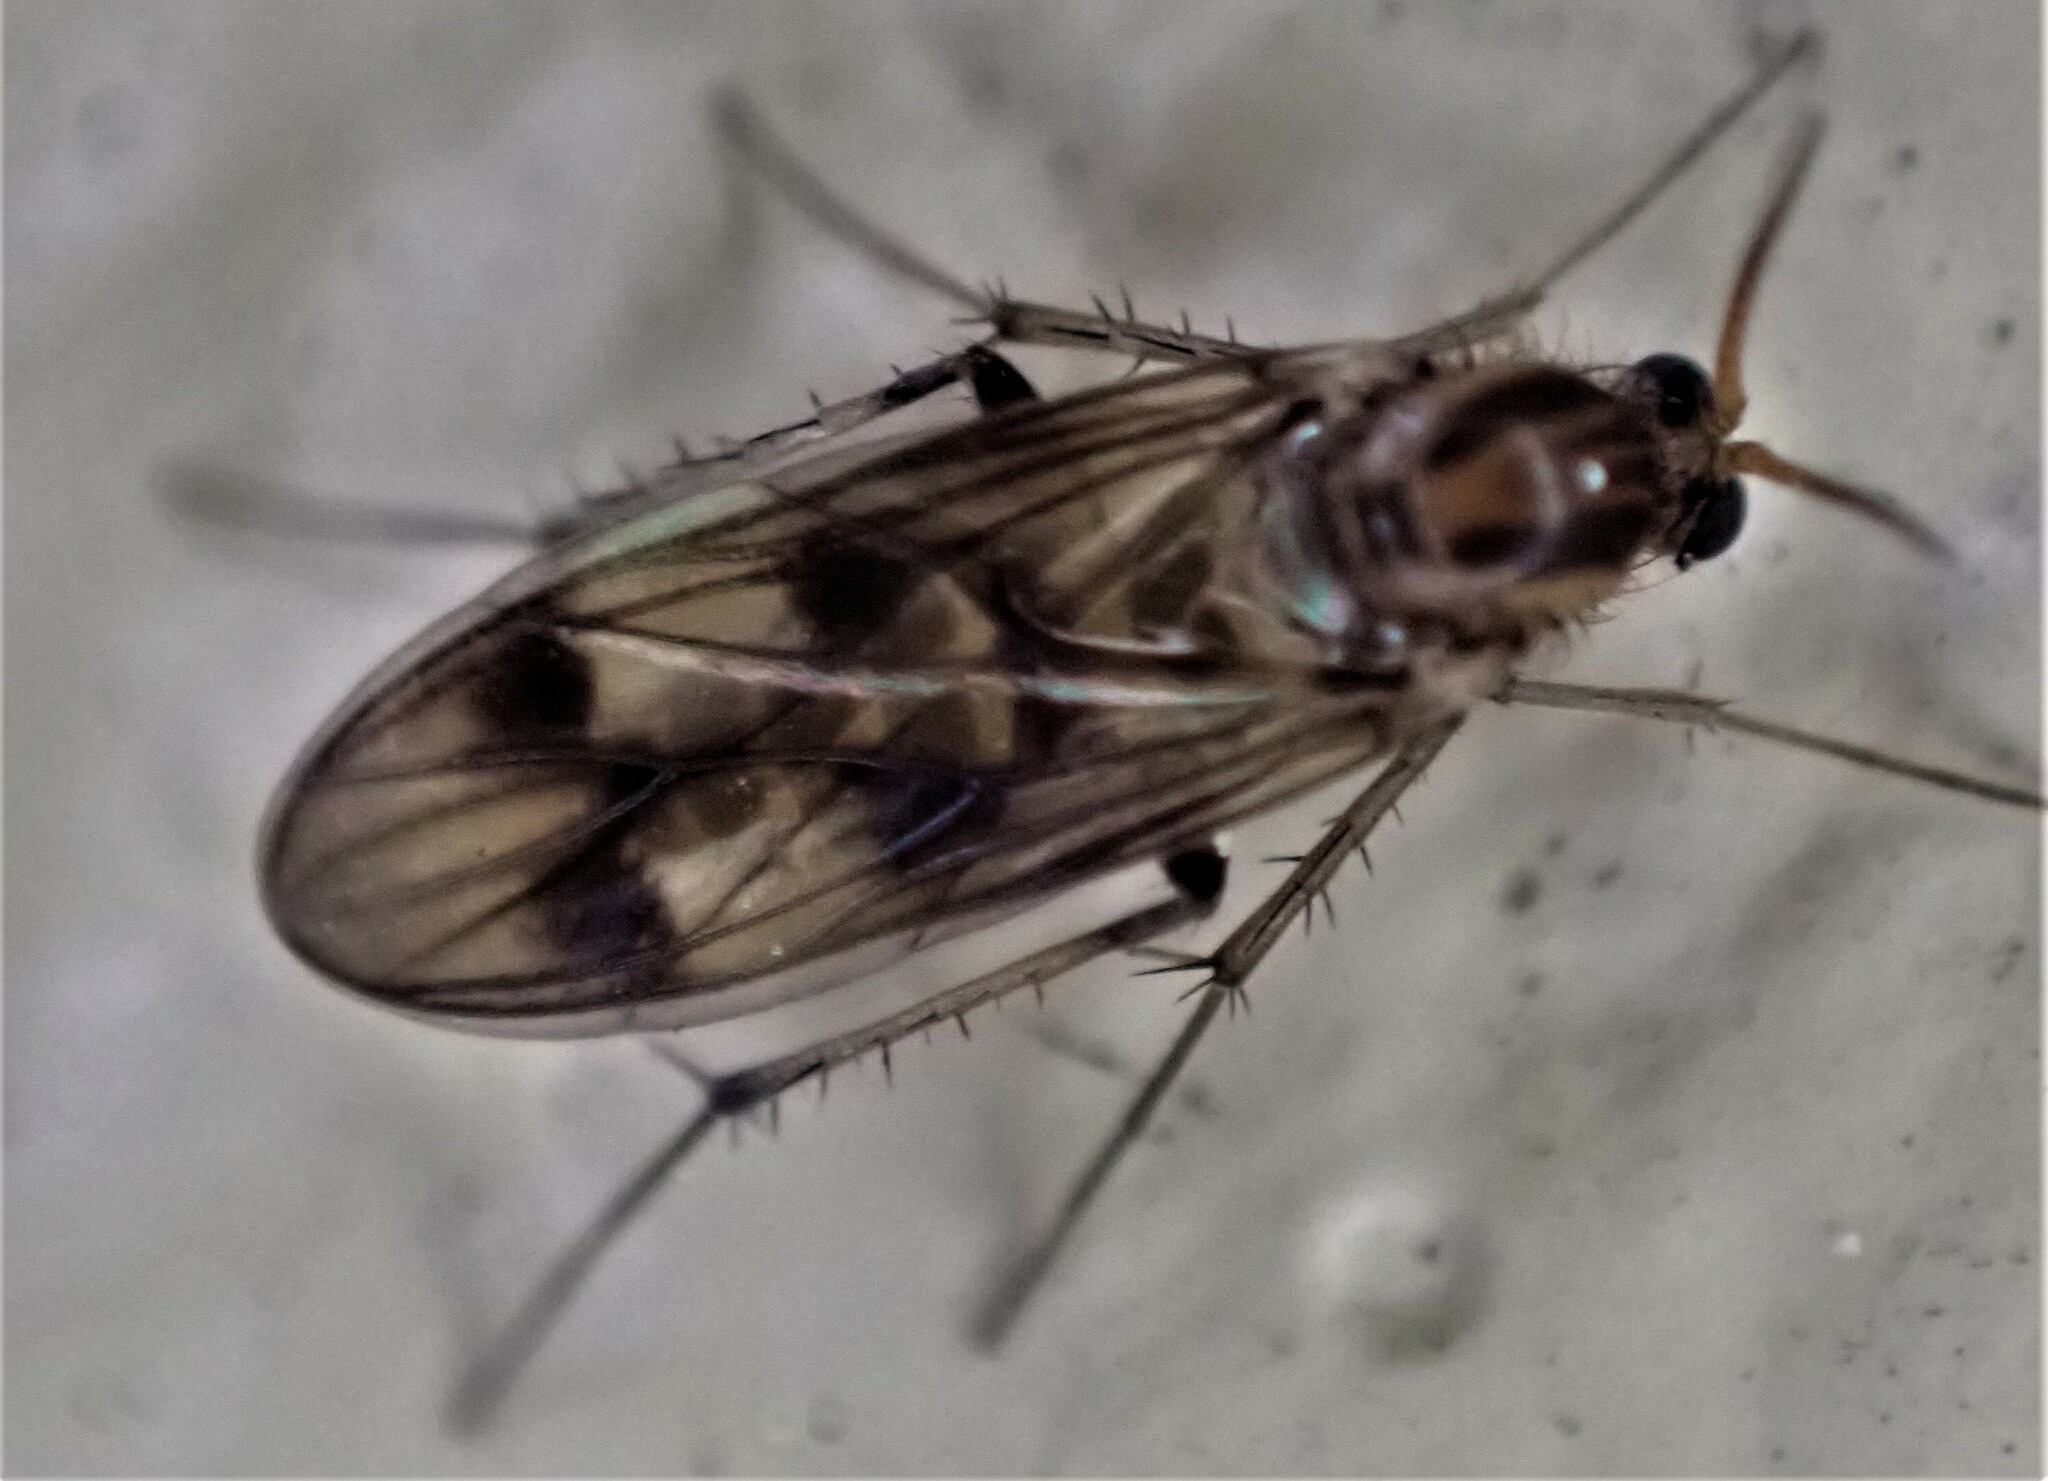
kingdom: Animalia
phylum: Arthropoda
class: Insecta
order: Diptera
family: Mycetophilidae
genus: Anomalomyia
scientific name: Anomalomyia guttata
